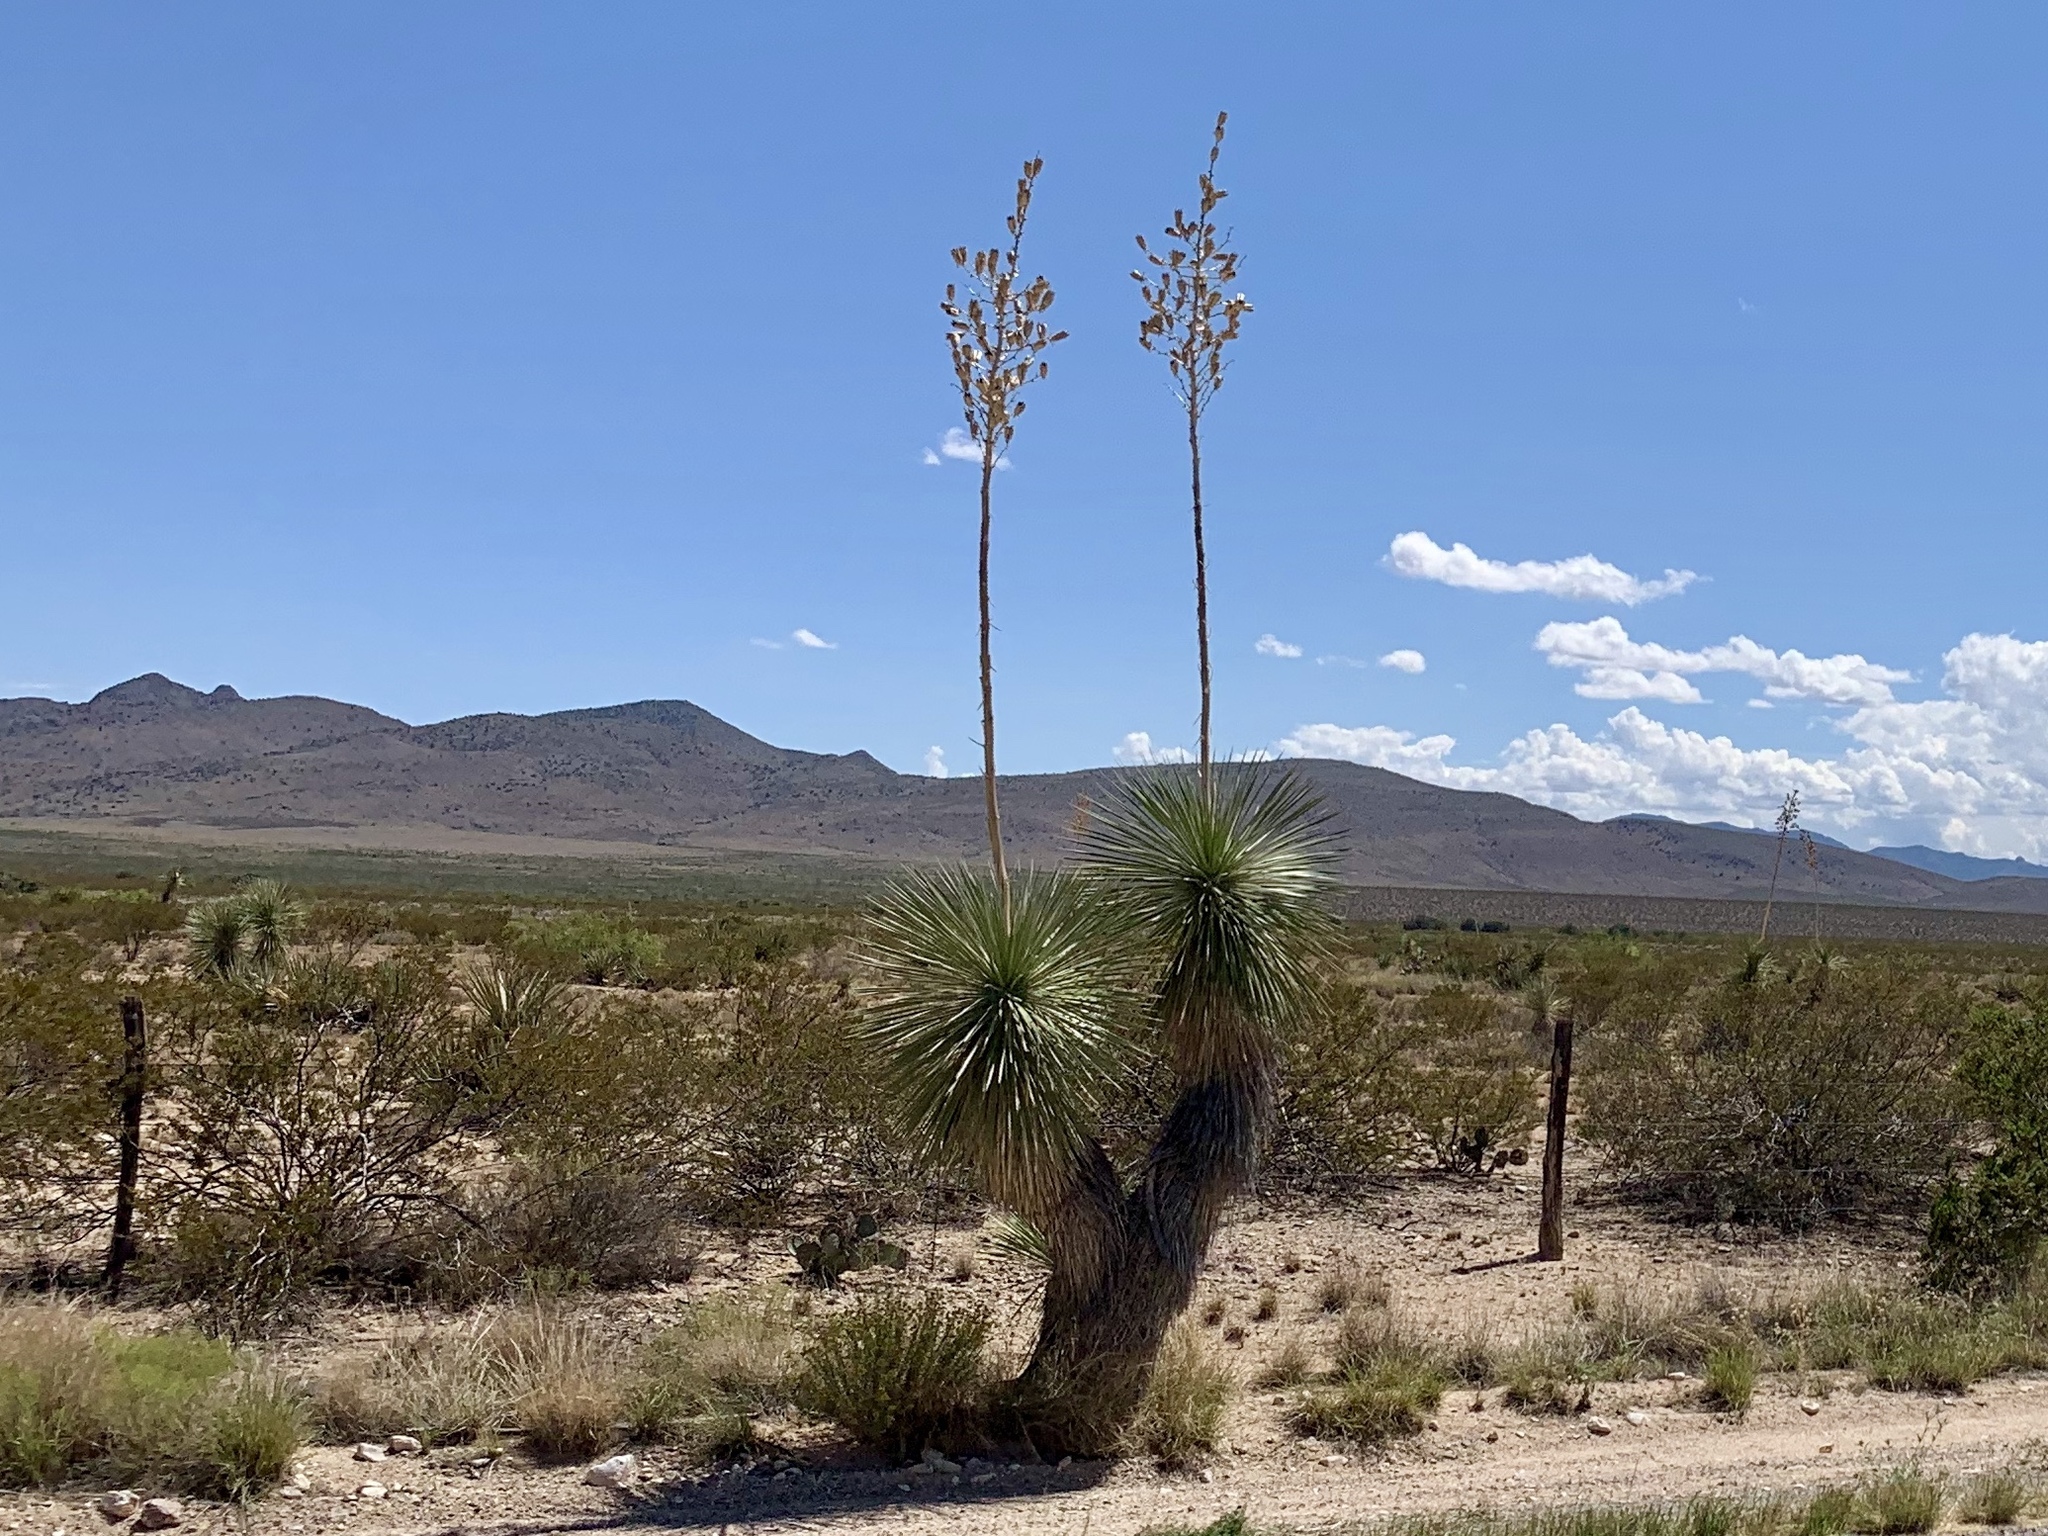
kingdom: Plantae
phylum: Tracheophyta
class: Liliopsida
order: Asparagales
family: Asparagaceae
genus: Yucca
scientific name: Yucca elata
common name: Palmella
